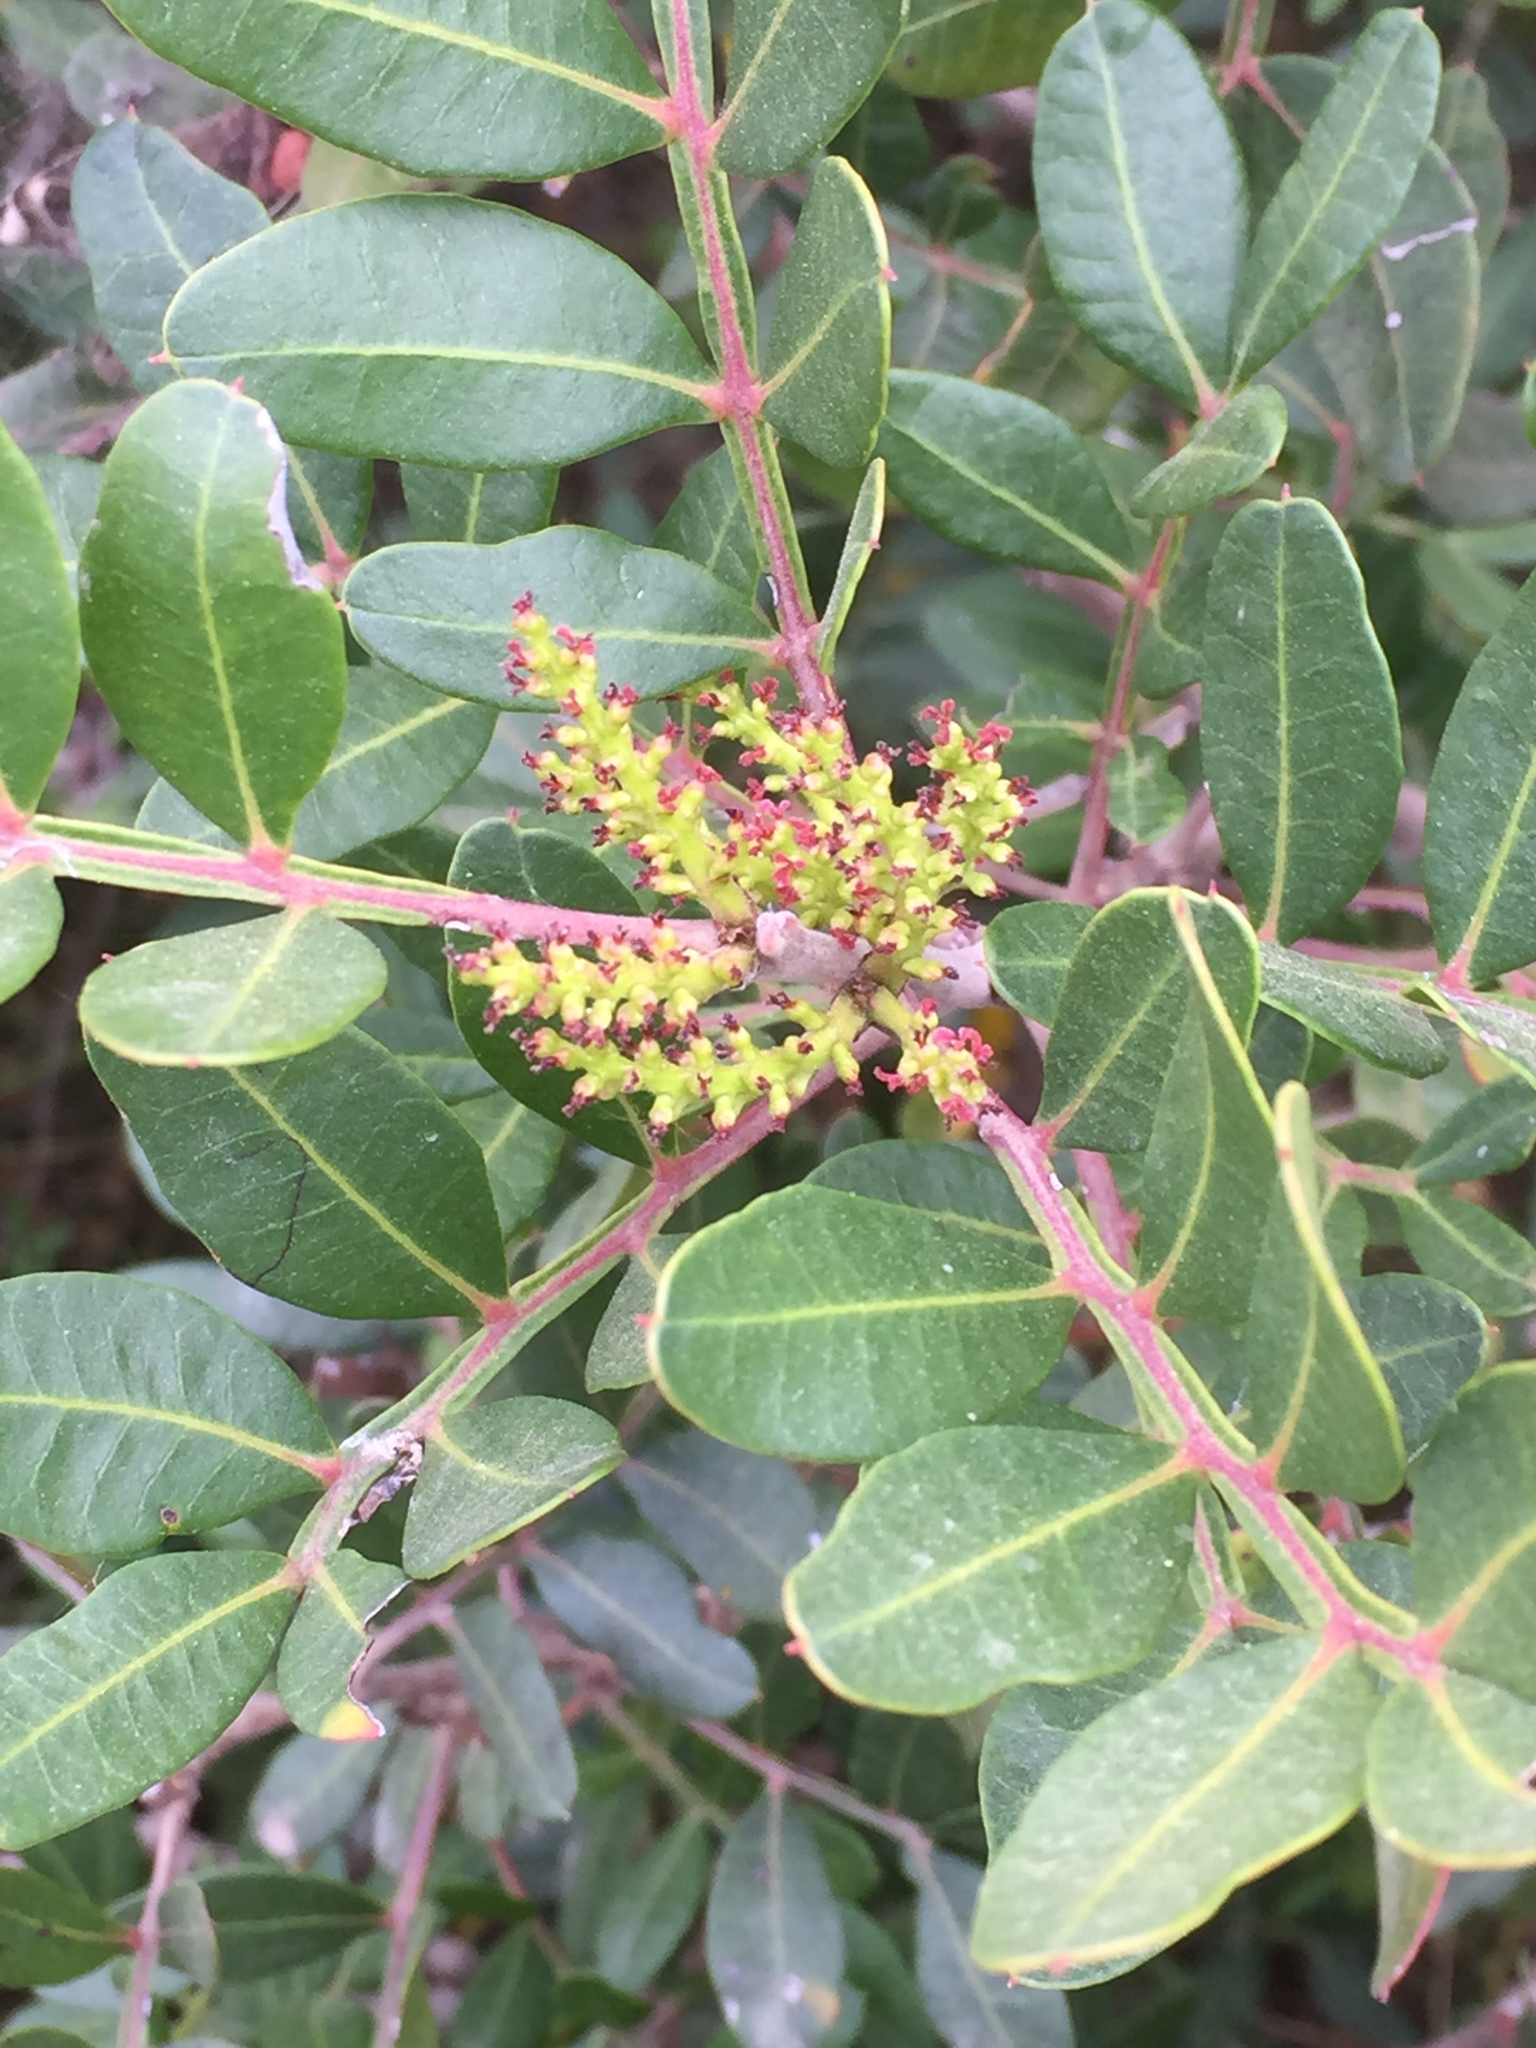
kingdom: Plantae
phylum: Tracheophyta
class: Magnoliopsida
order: Sapindales
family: Anacardiaceae
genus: Pistacia
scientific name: Pistacia lentiscus
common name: Lentisk
